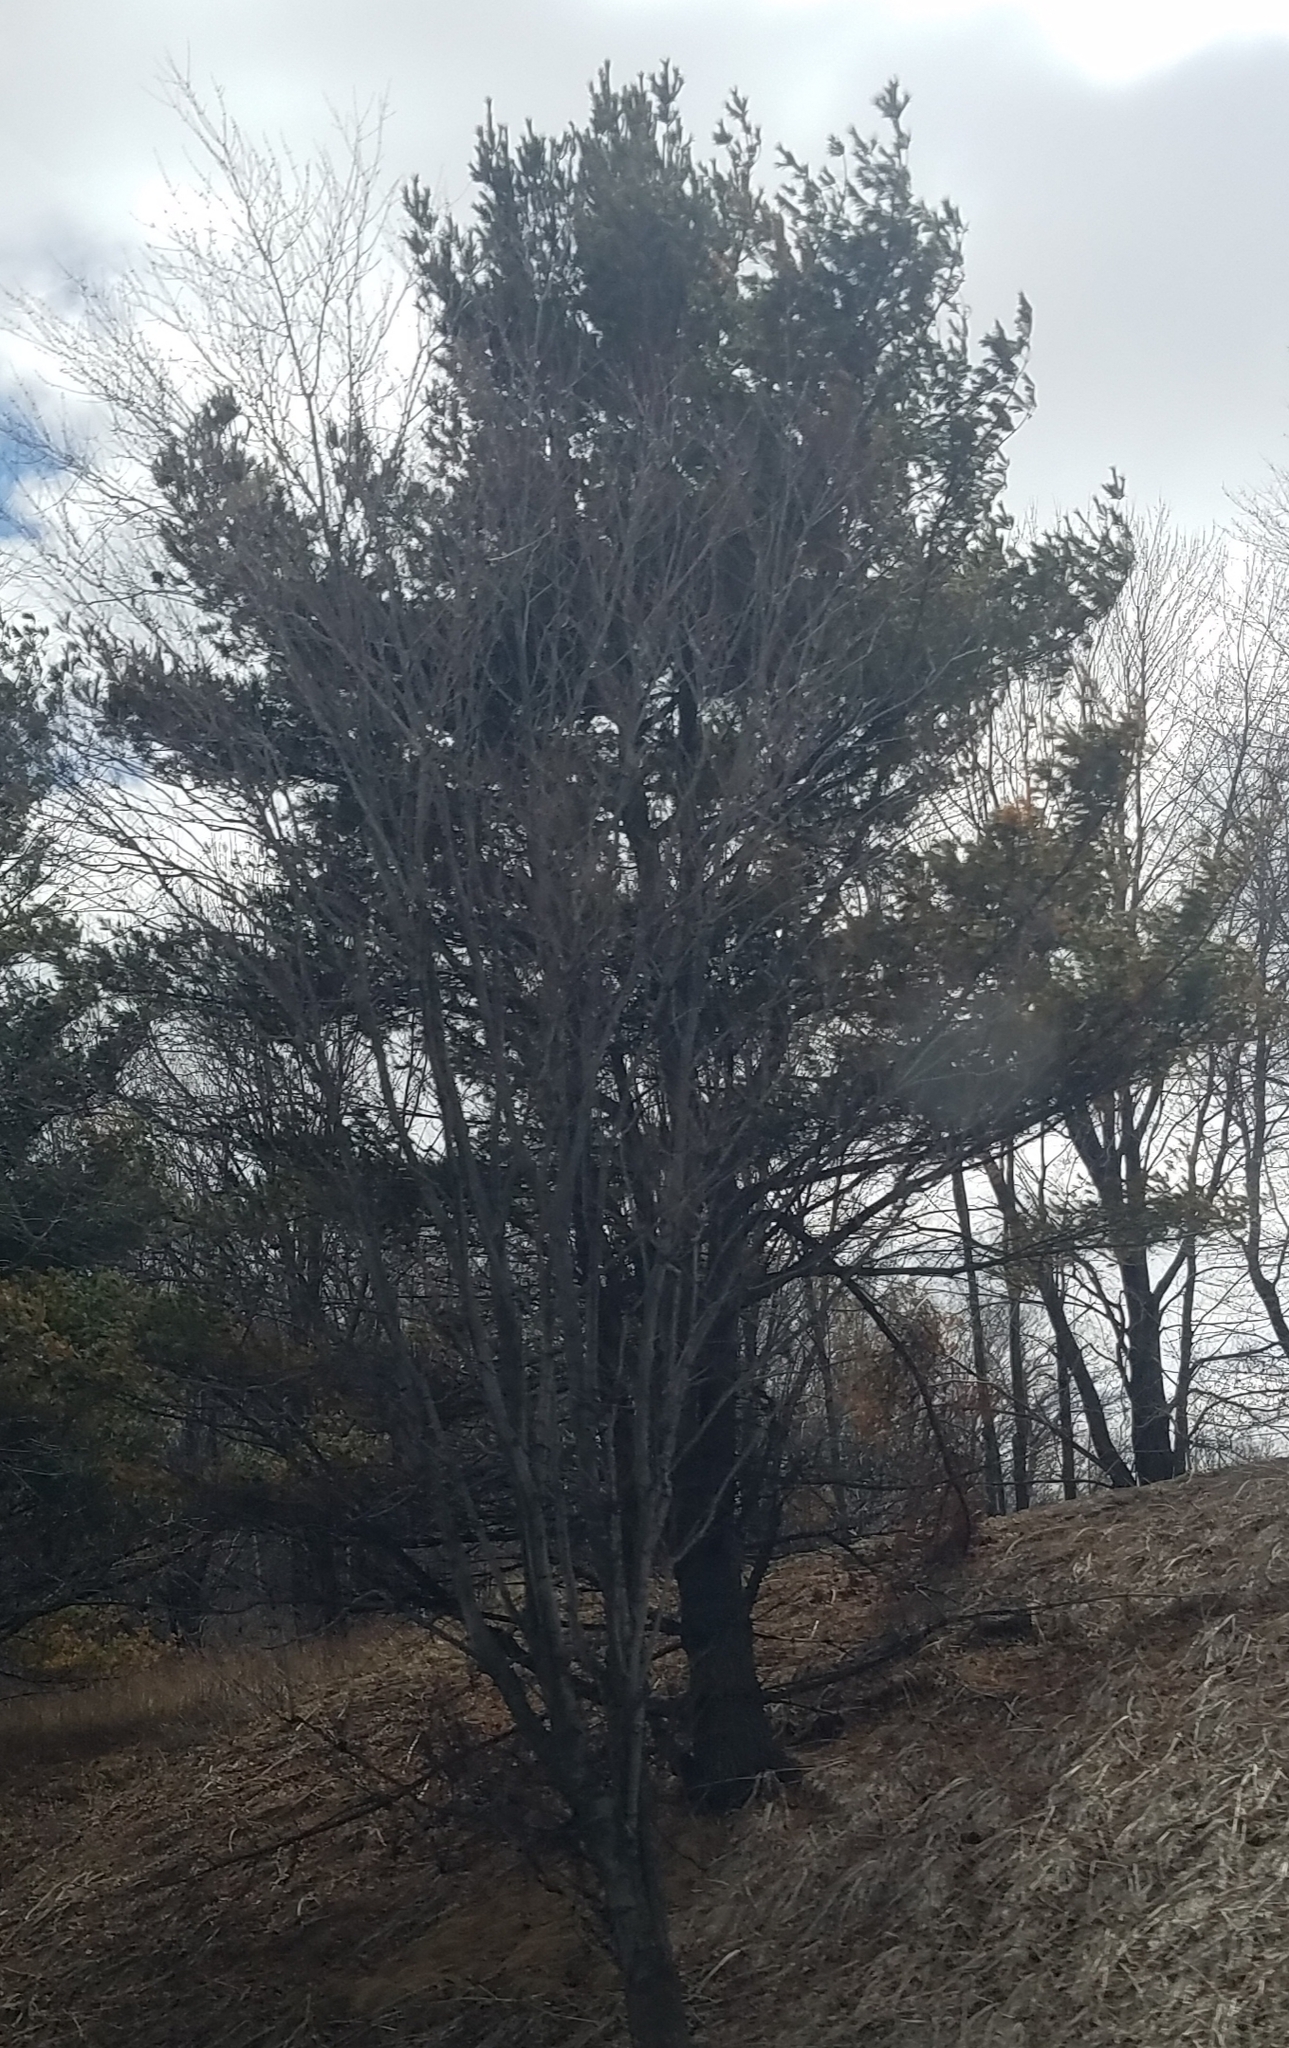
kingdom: Plantae
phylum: Tracheophyta
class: Pinopsida
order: Pinales
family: Pinaceae
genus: Pinus
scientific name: Pinus strobus
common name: Weymouth pine
